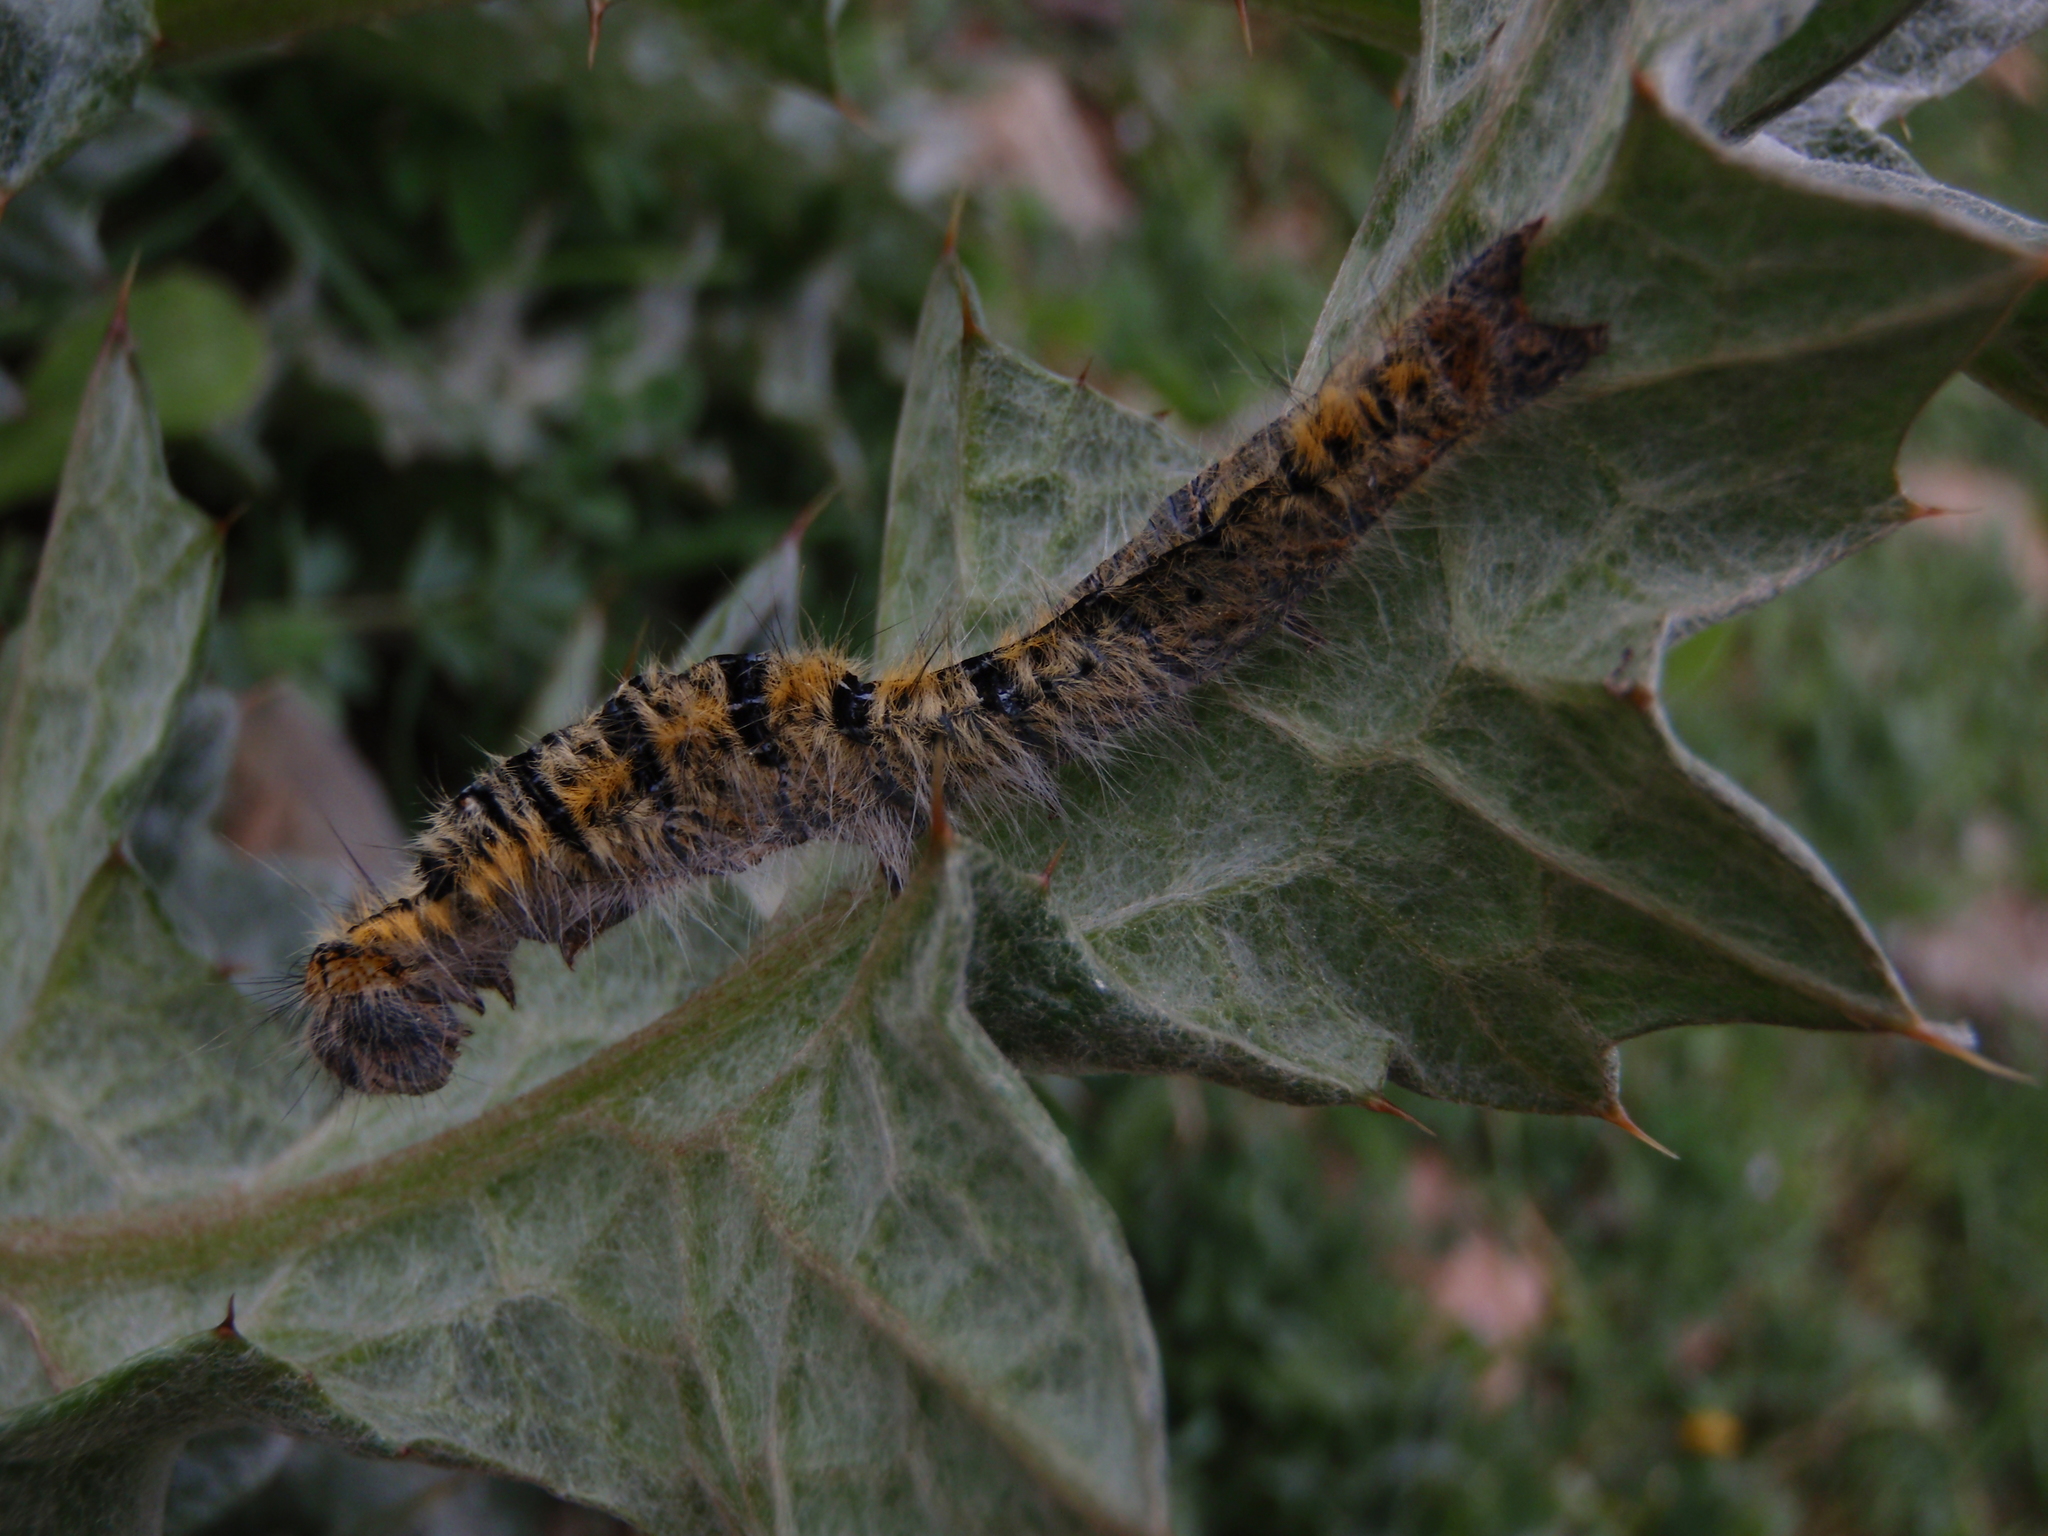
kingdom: Animalia
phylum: Arthropoda
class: Insecta
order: Lepidoptera
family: Lasiocampidae
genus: Lasiocampa
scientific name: Lasiocampa trifolii
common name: Grass eggar
